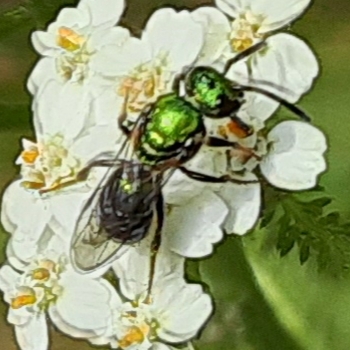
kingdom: Animalia
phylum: Arthropoda
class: Insecta
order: Hymenoptera
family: Halictidae
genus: Augochlora
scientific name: Augochlora pura
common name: Pure green sweat bee
